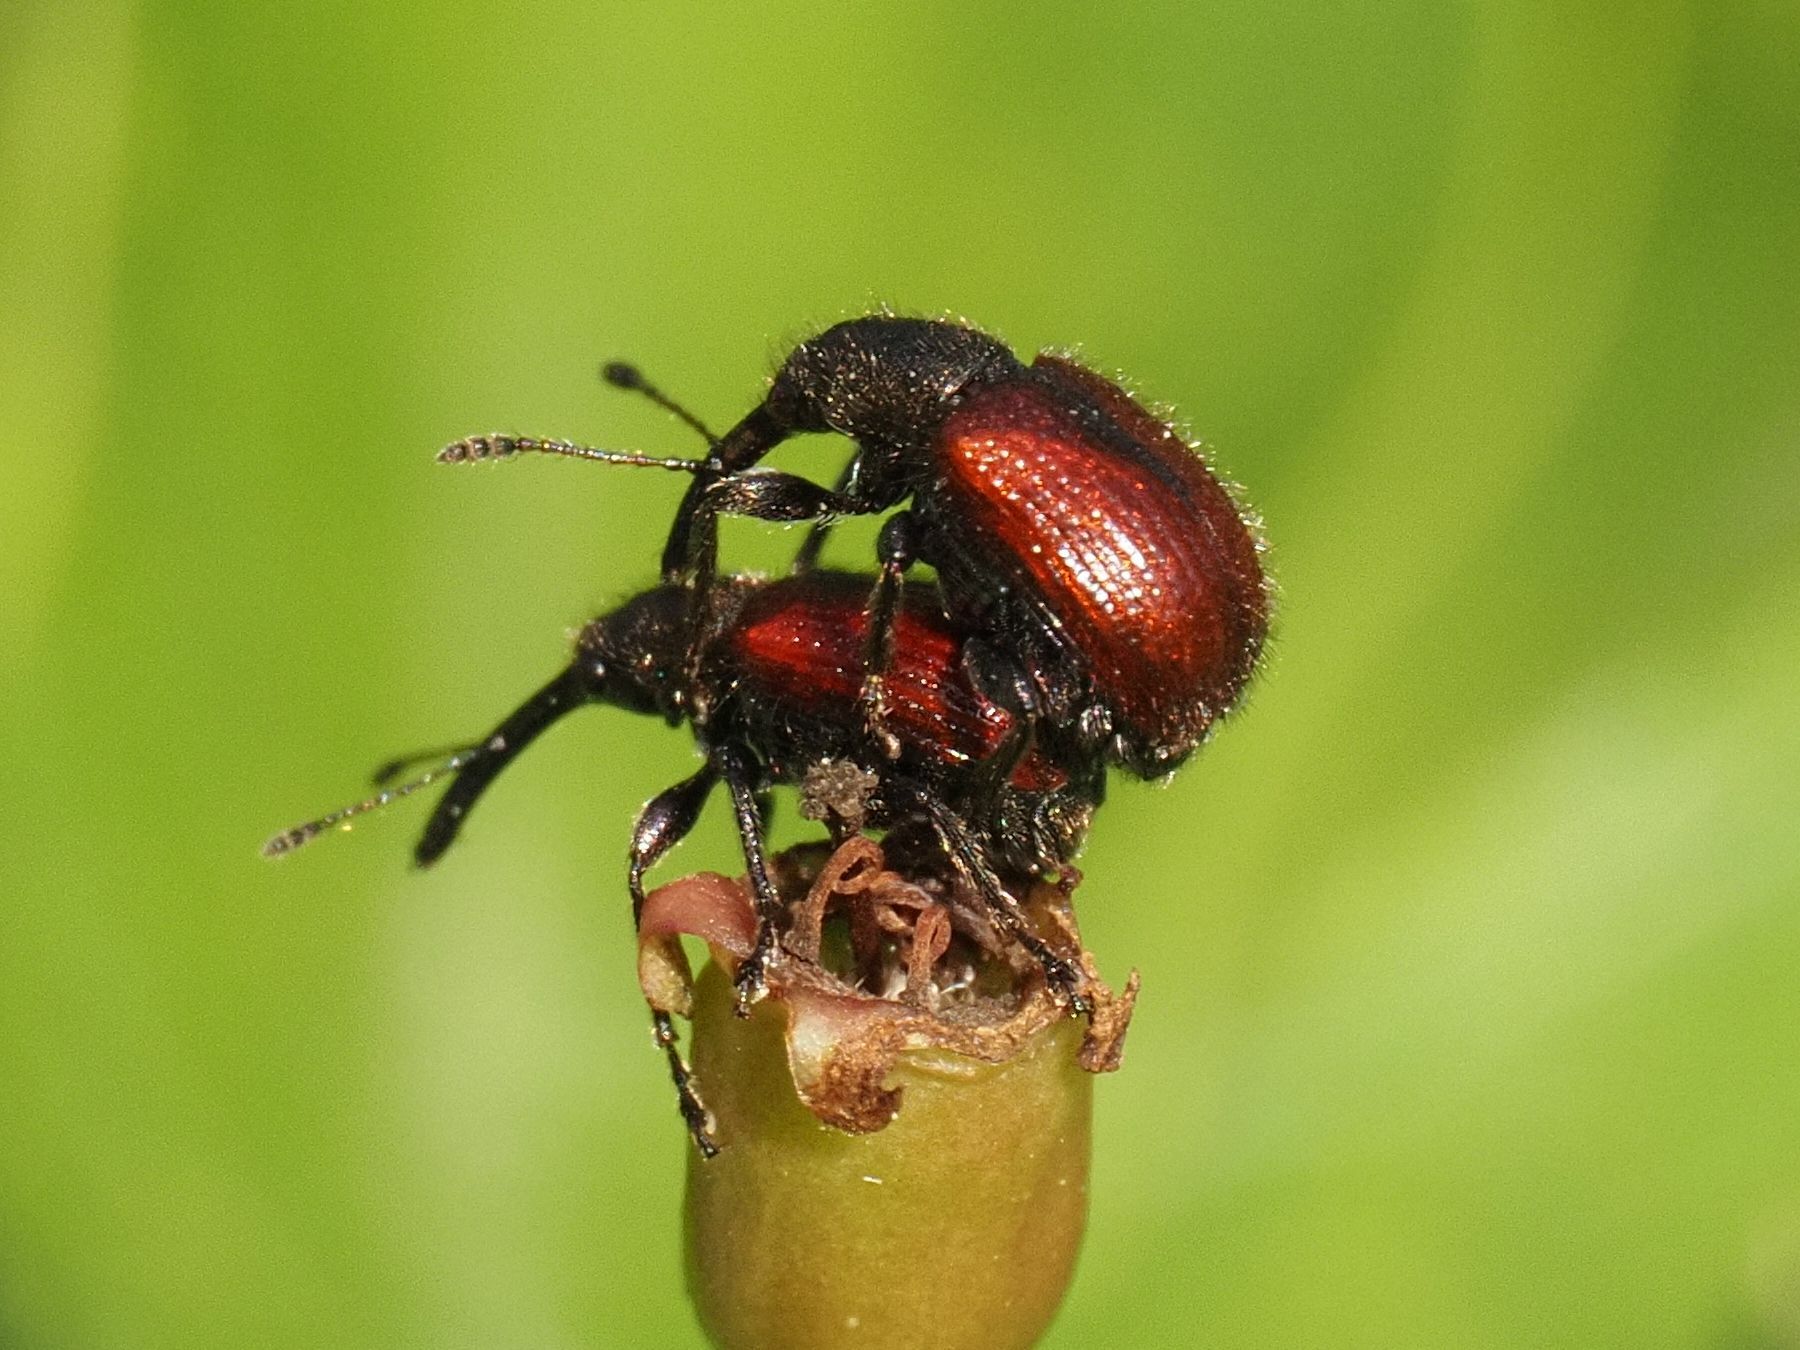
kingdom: Animalia
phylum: Arthropoda
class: Insecta
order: Coleoptera
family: Rhynchitidae
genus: Tatianaerhynchites
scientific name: Tatianaerhynchites aequatus
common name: Apple fruit rhynchites
